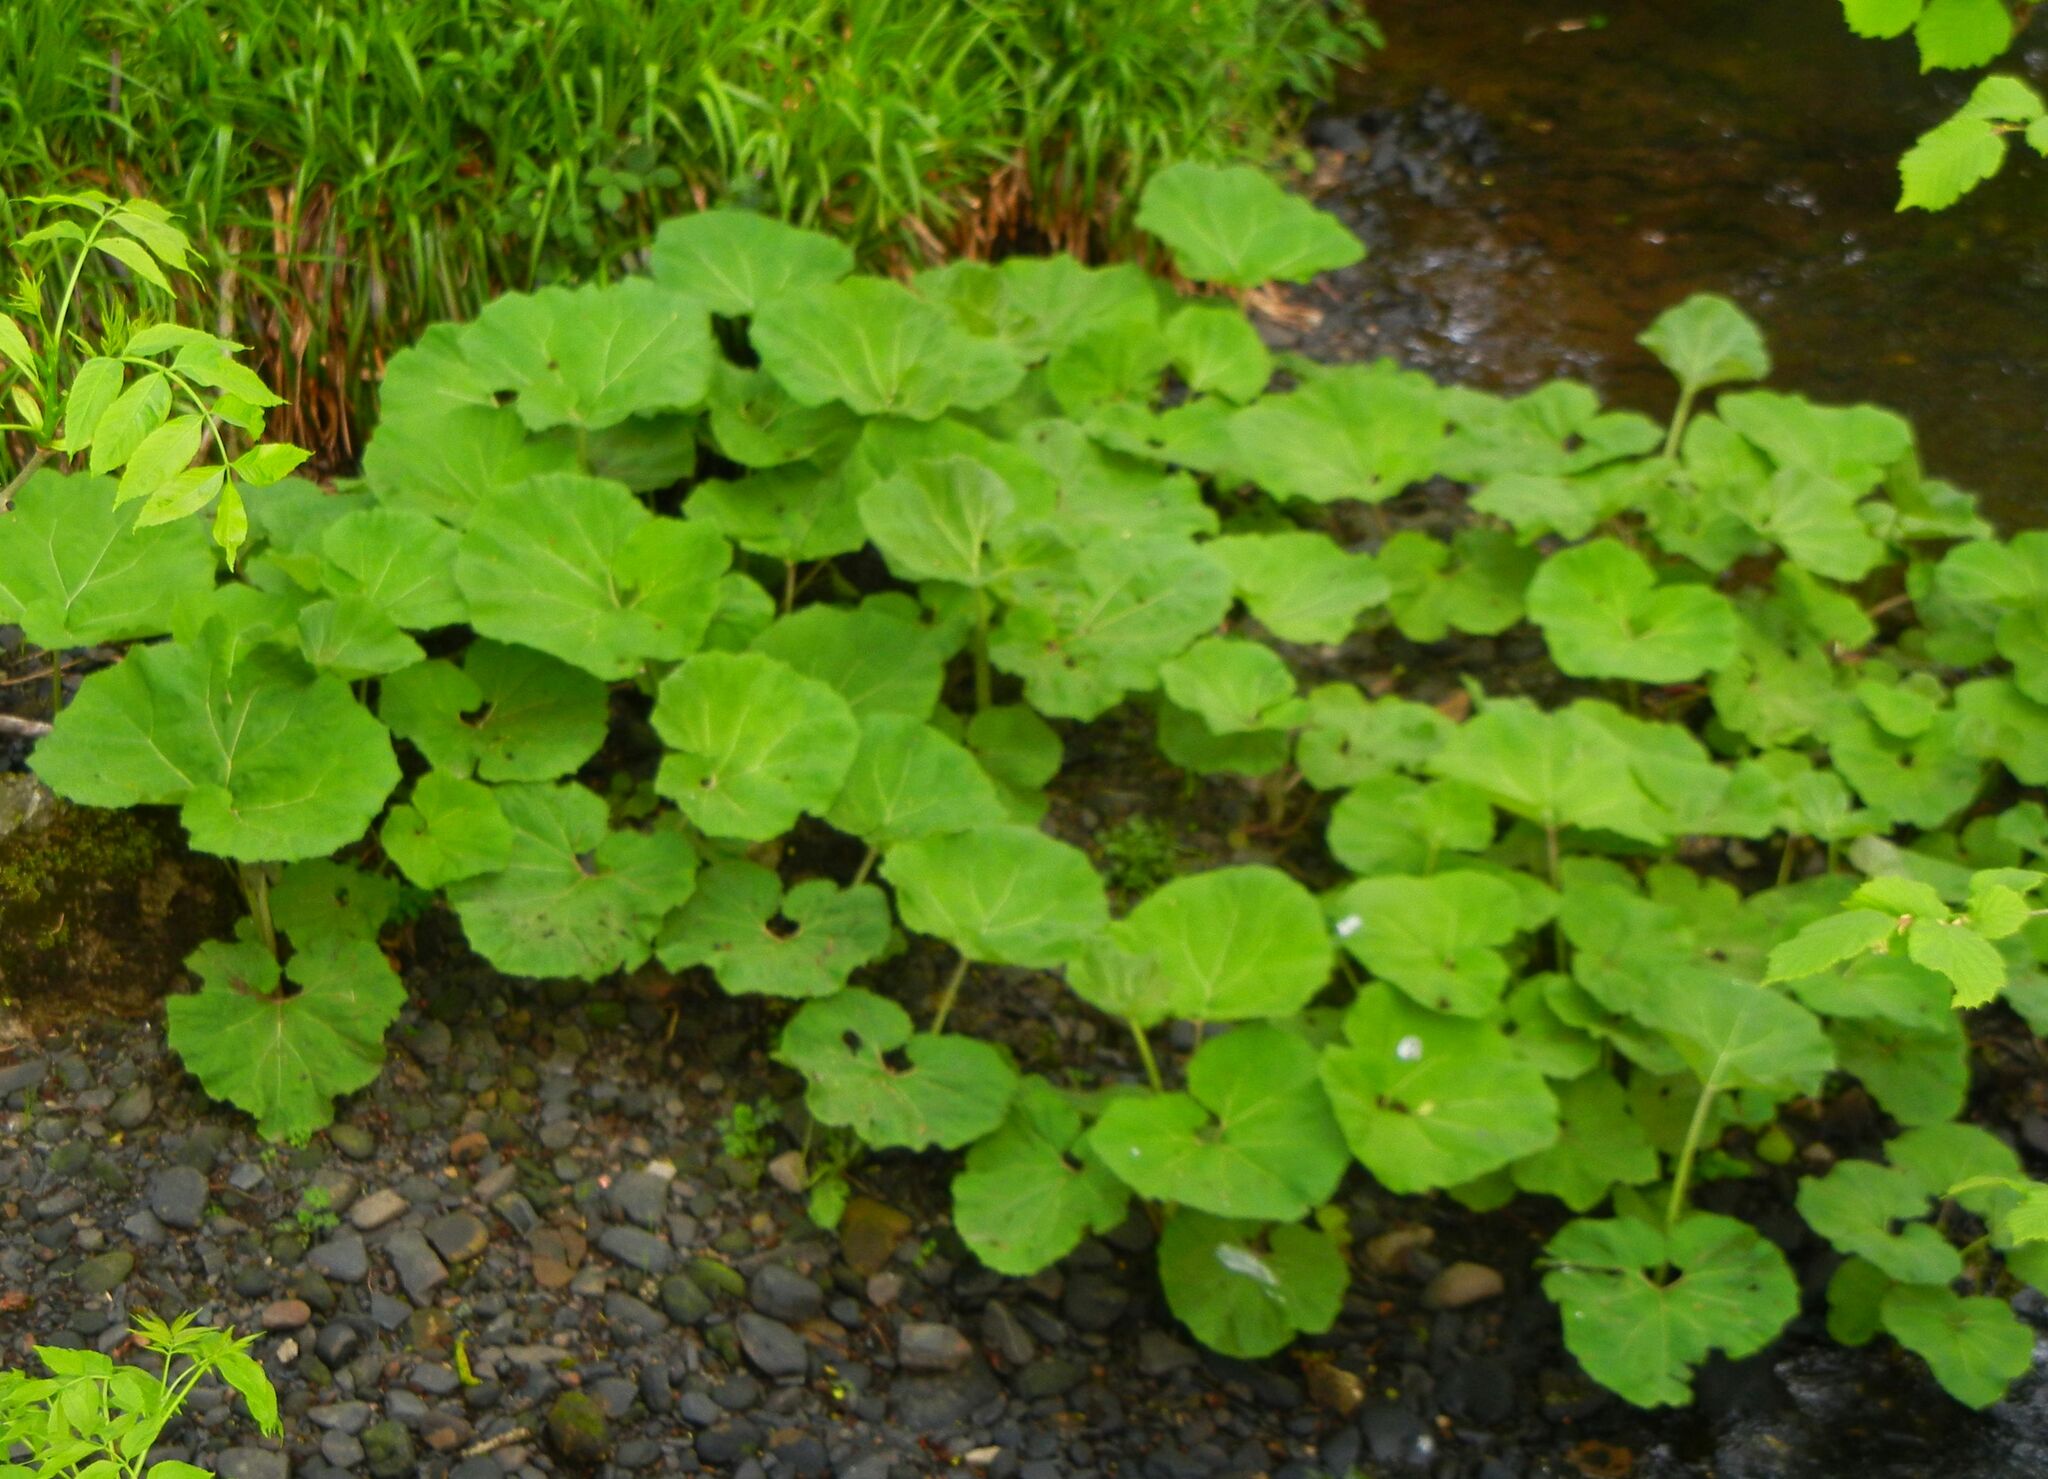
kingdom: Plantae
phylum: Tracheophyta
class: Magnoliopsida
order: Asterales
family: Asteraceae
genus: Petasites
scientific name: Petasites hybridus
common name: Butterbur
